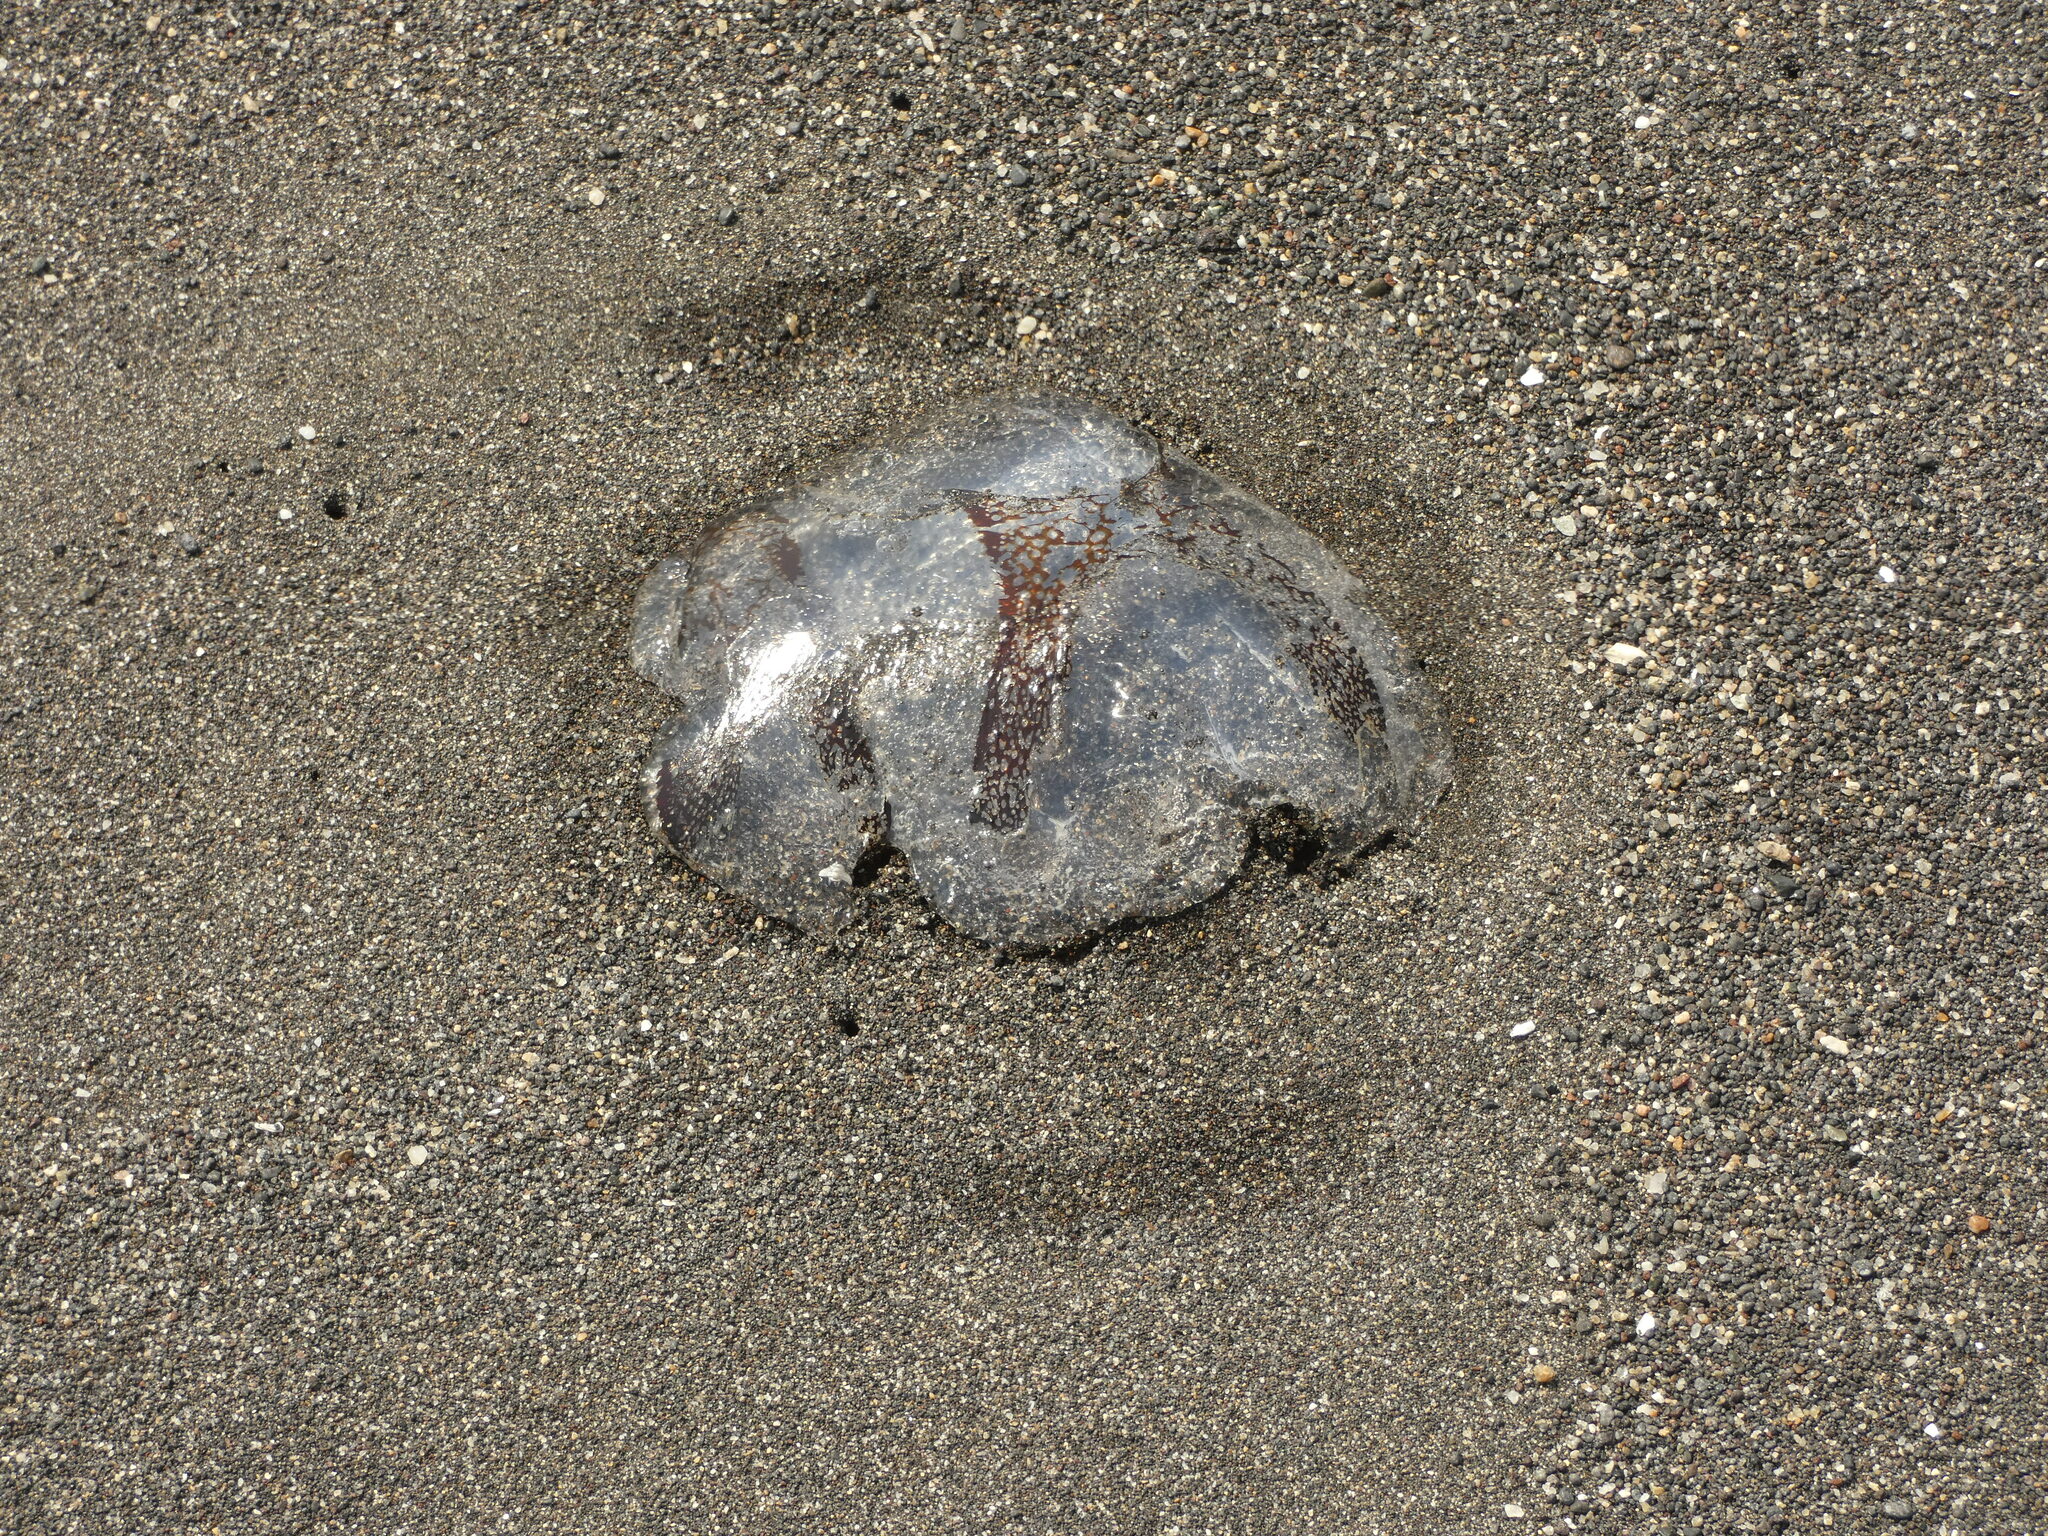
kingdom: Animalia
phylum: Cnidaria
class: Scyphozoa
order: Semaeostomeae
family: Pelagiidae
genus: Chrysaora
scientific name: Chrysaora plocamia
